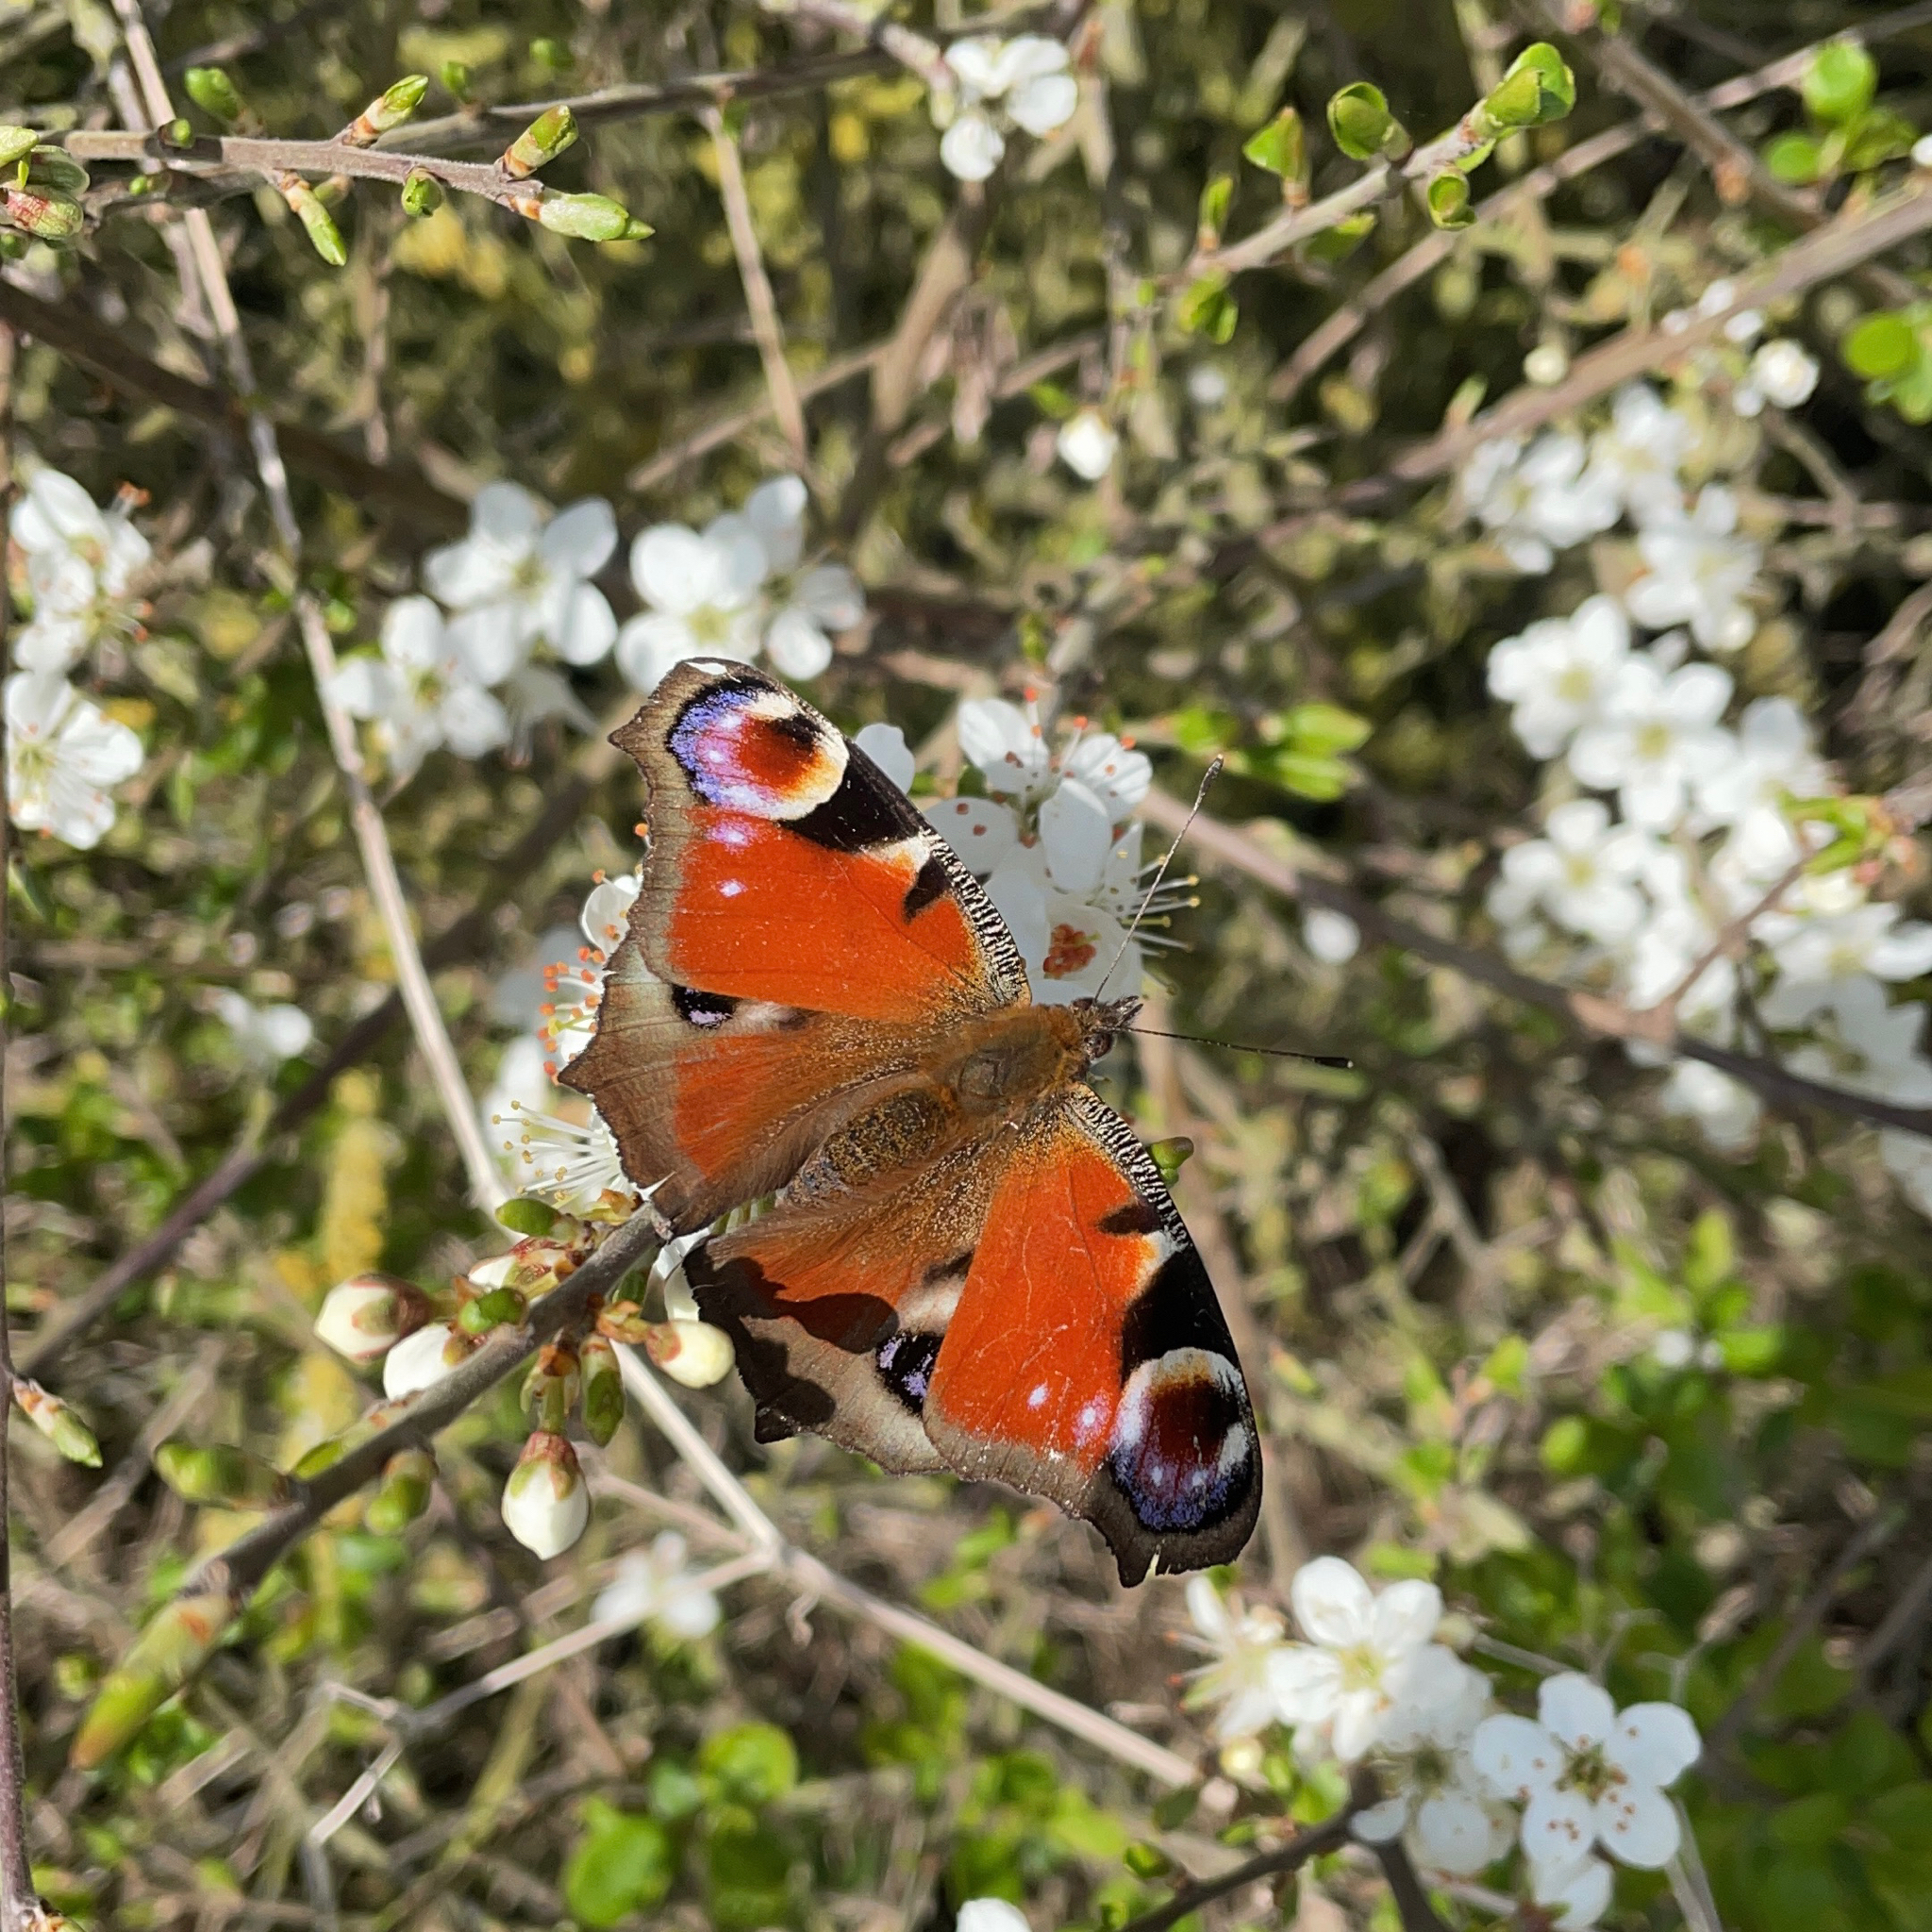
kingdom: Animalia
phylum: Arthropoda
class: Insecta
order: Lepidoptera
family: Nymphalidae
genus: Aglais
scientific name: Aglais io
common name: Peacock
